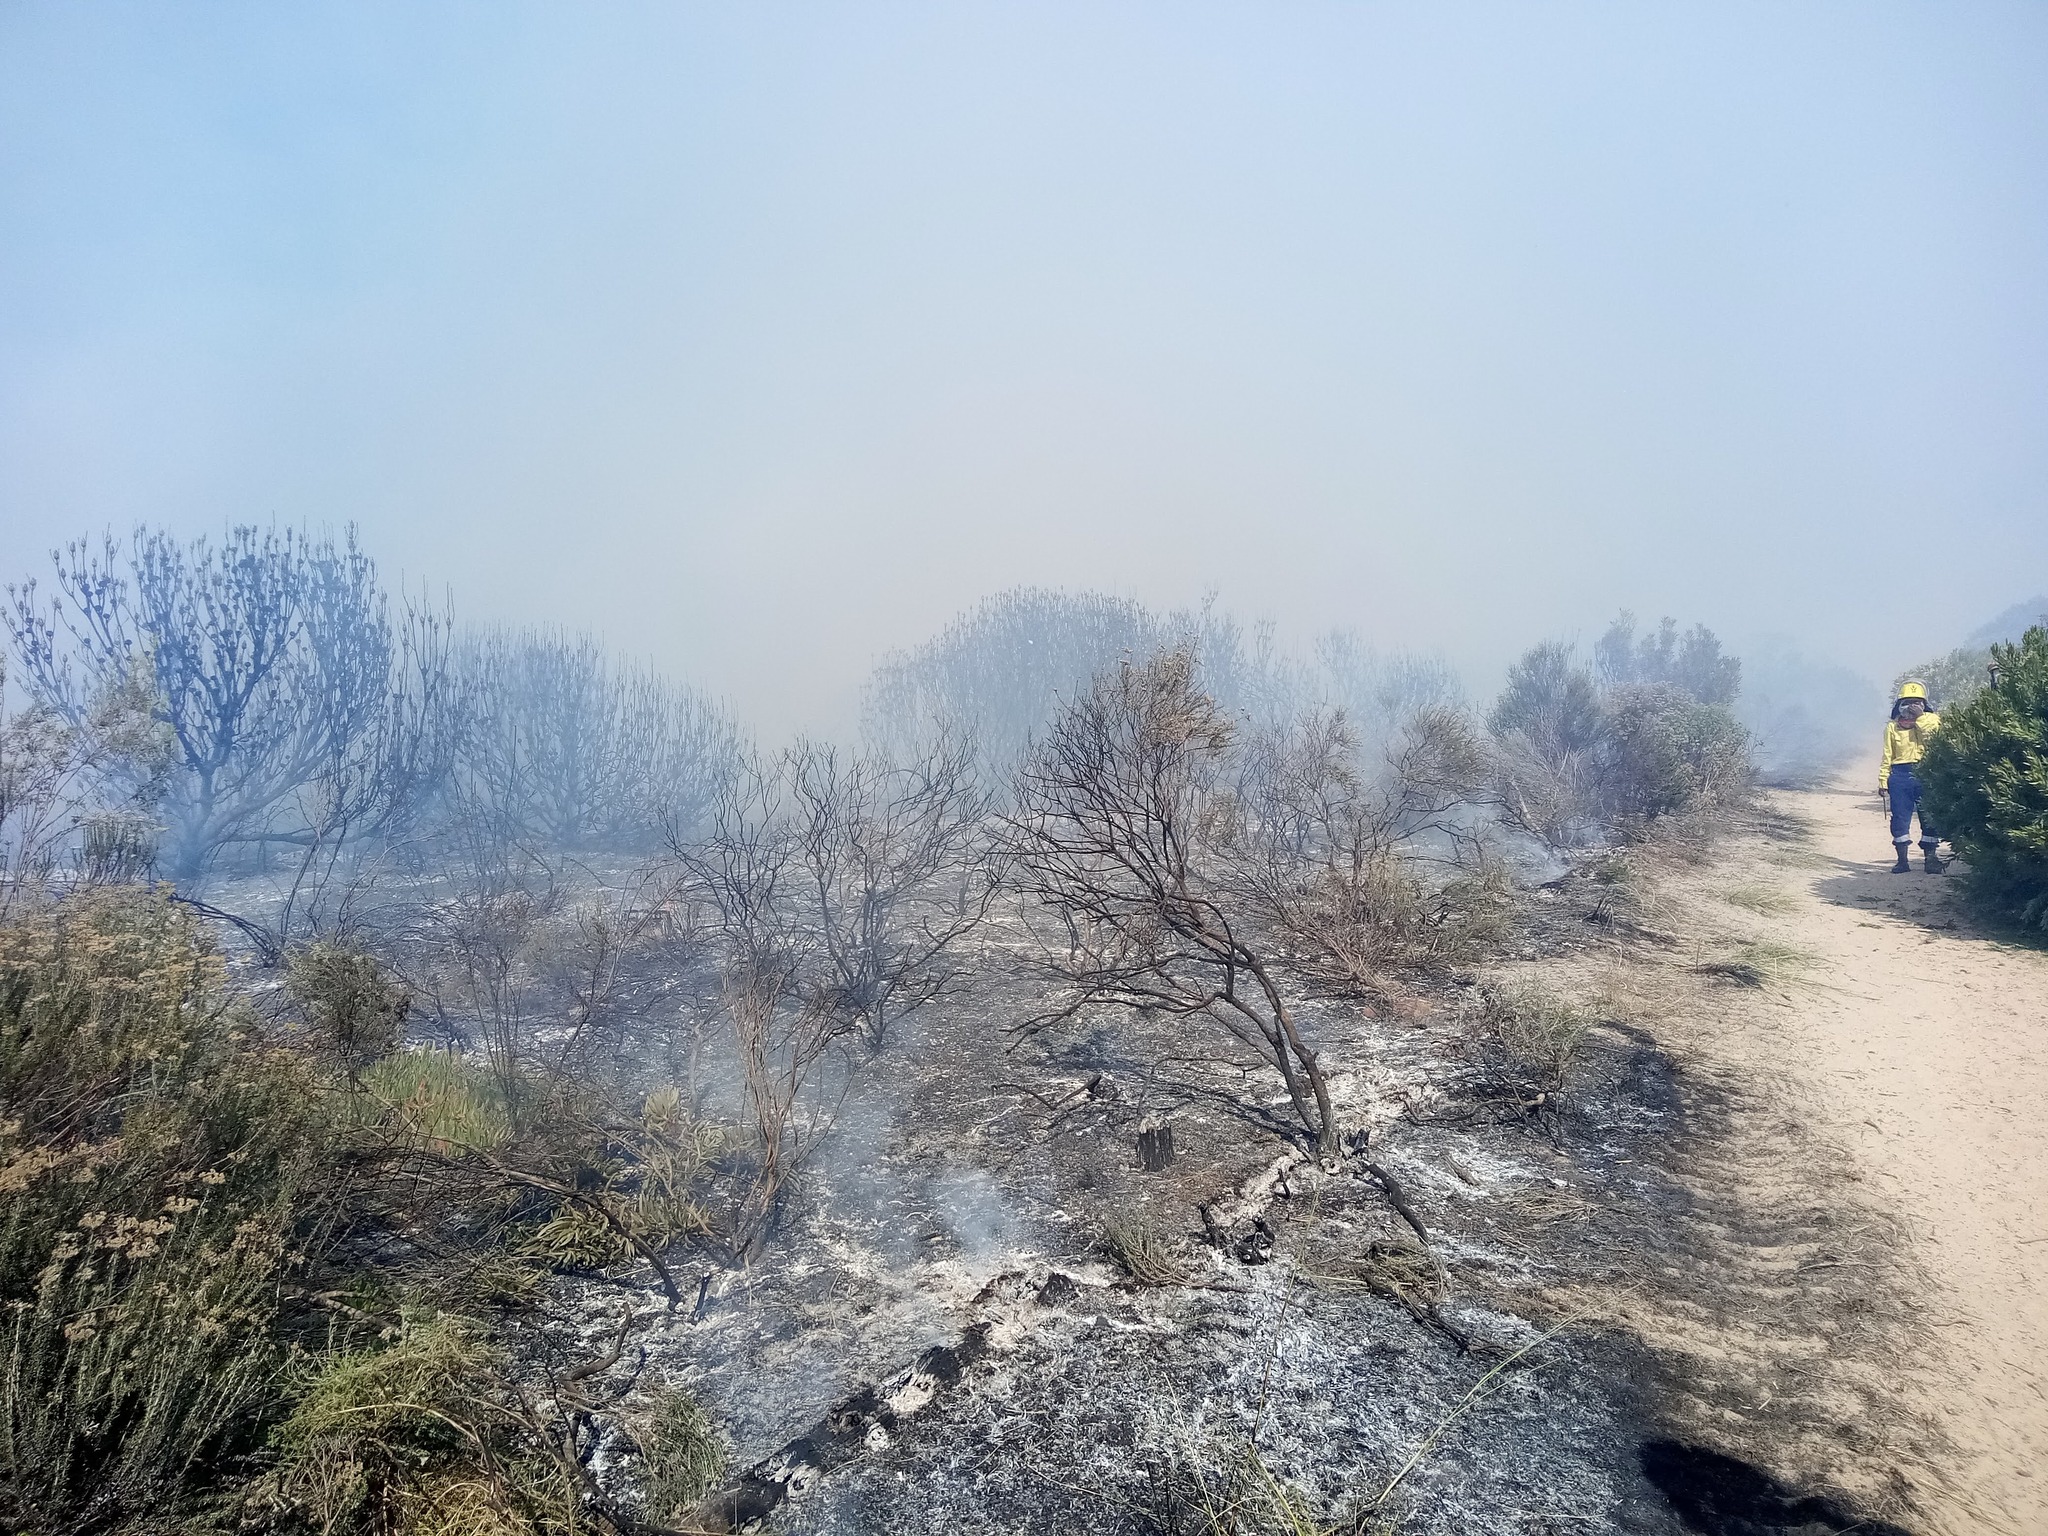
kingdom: Plantae
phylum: Tracheophyta
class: Magnoliopsida
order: Proteales
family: Proteaceae
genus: Protea
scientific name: Protea repens
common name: Sugarbush
